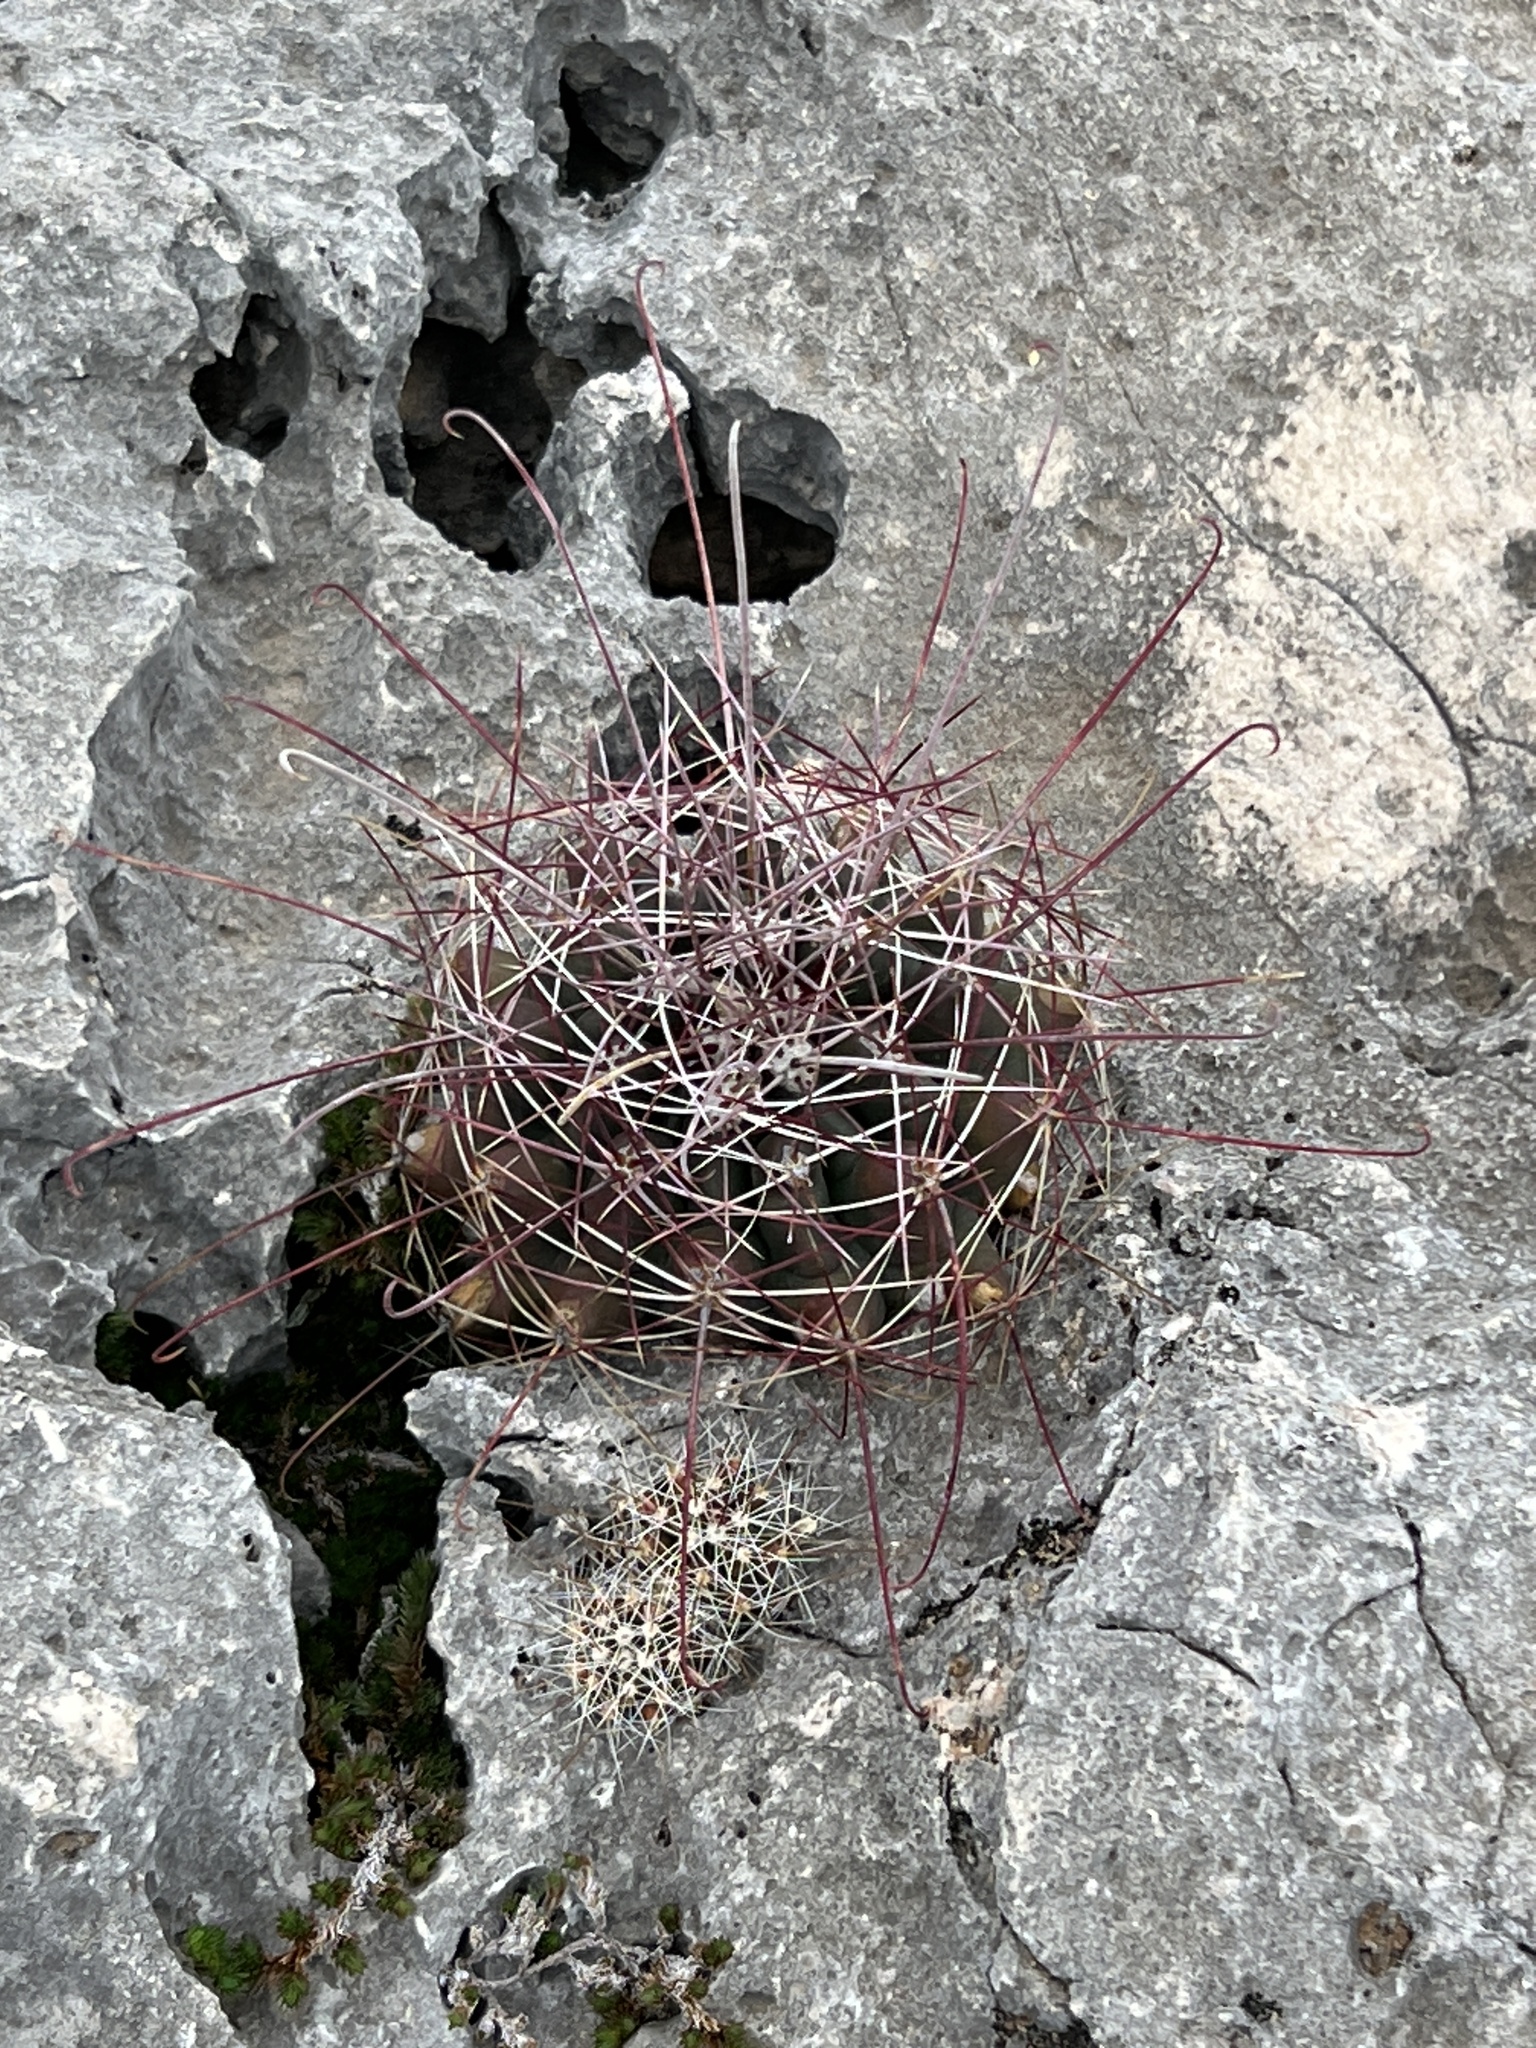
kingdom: Plantae
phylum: Tracheophyta
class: Magnoliopsida
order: Caryophyllales
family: Cactaceae
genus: Bisnaga
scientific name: Bisnaga hamatacantha
